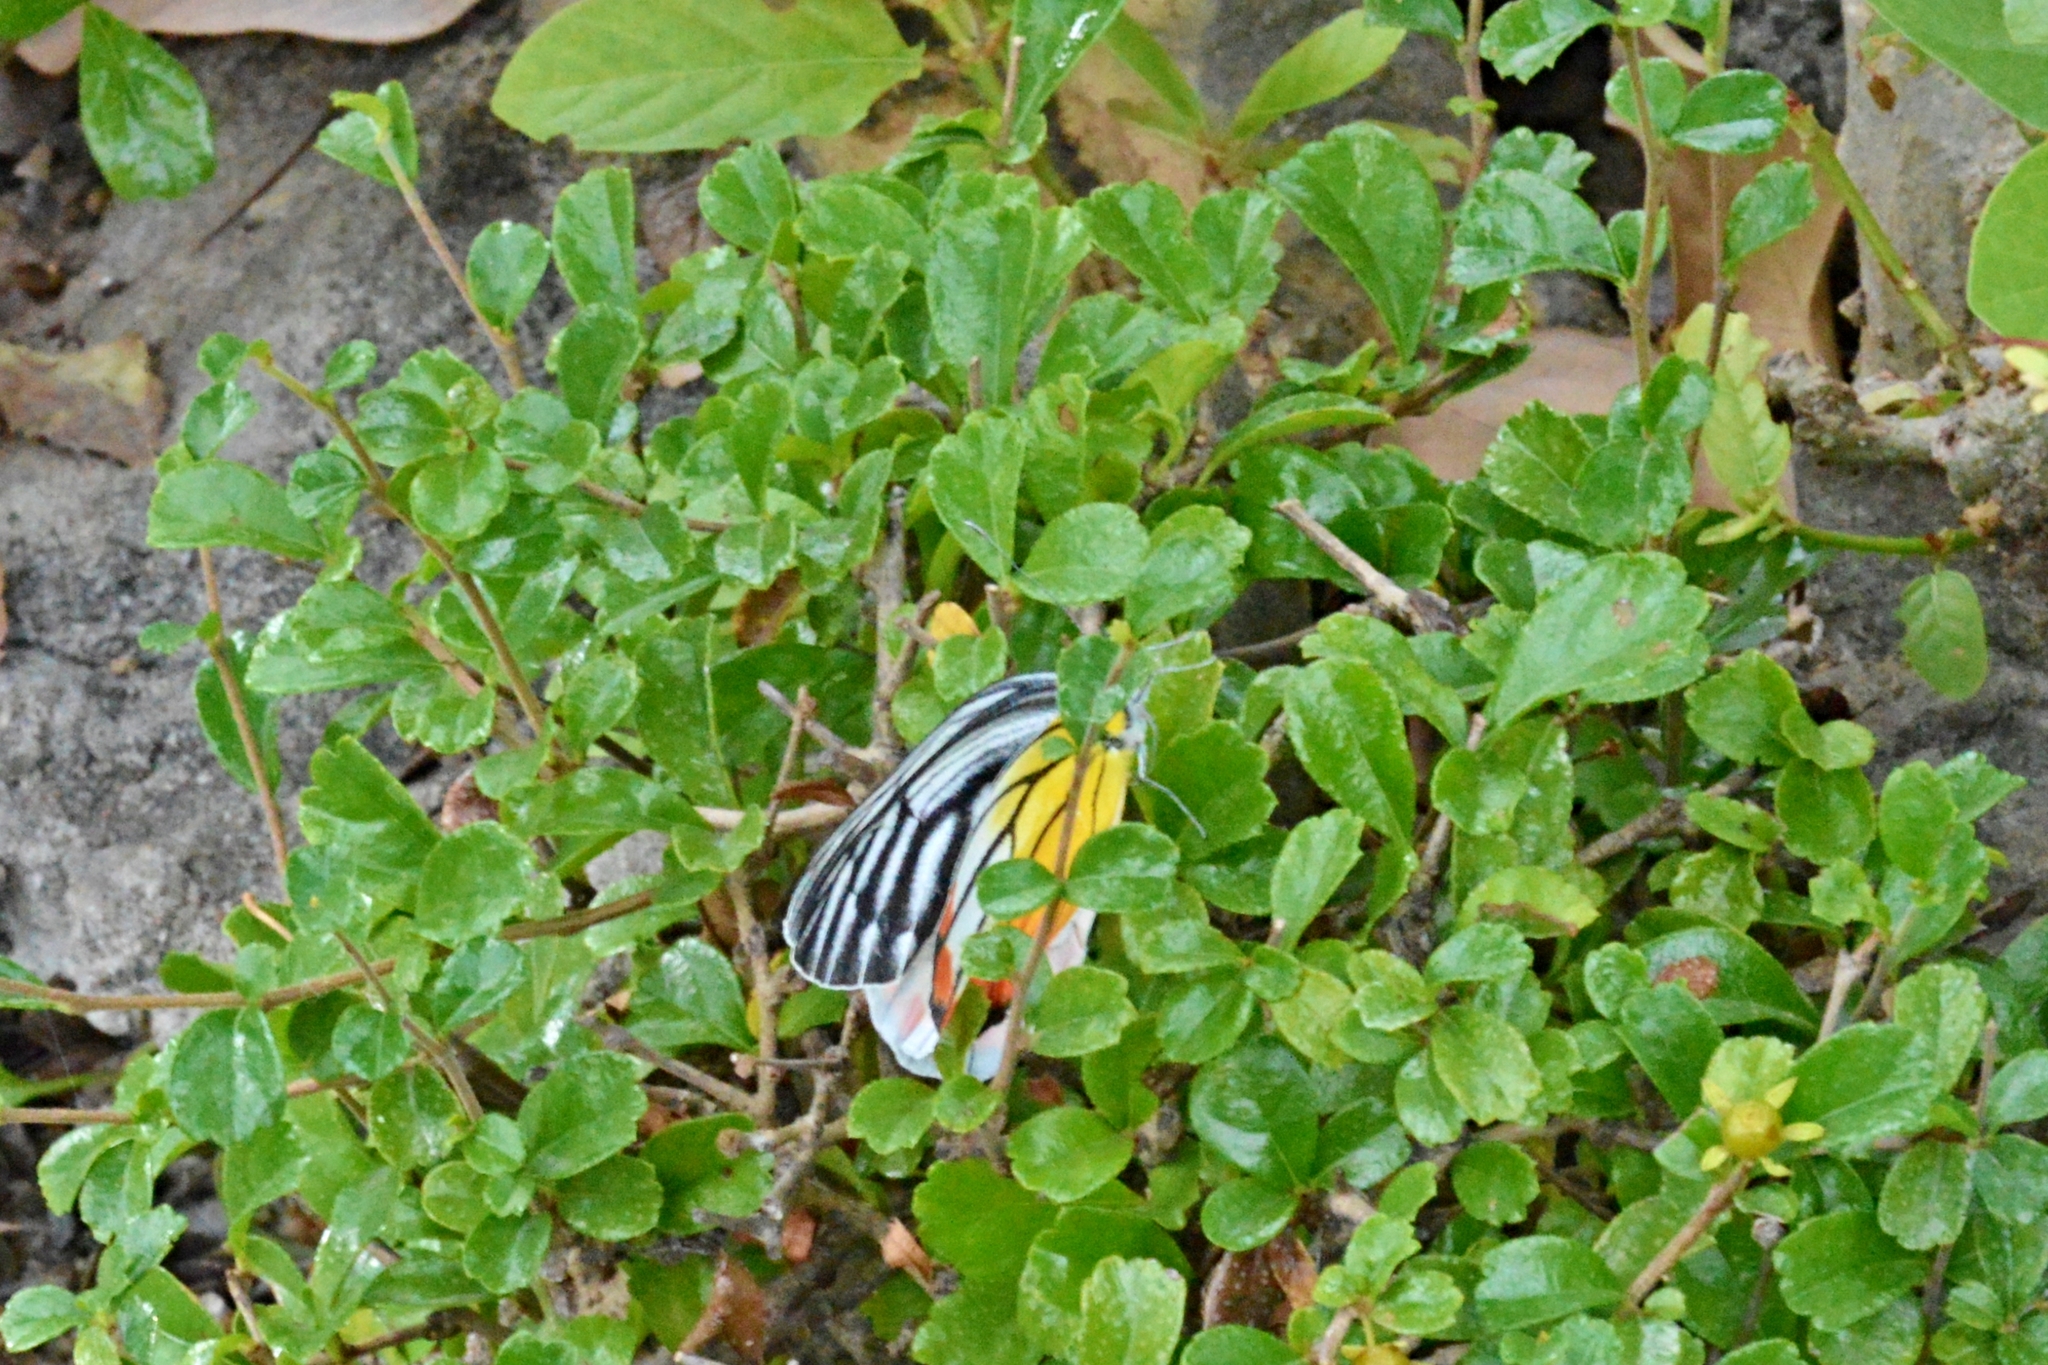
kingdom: Animalia
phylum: Arthropoda
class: Insecta
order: Lepidoptera
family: Pieridae
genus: Delias
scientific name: Delias hyparete
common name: Painted jezebel
